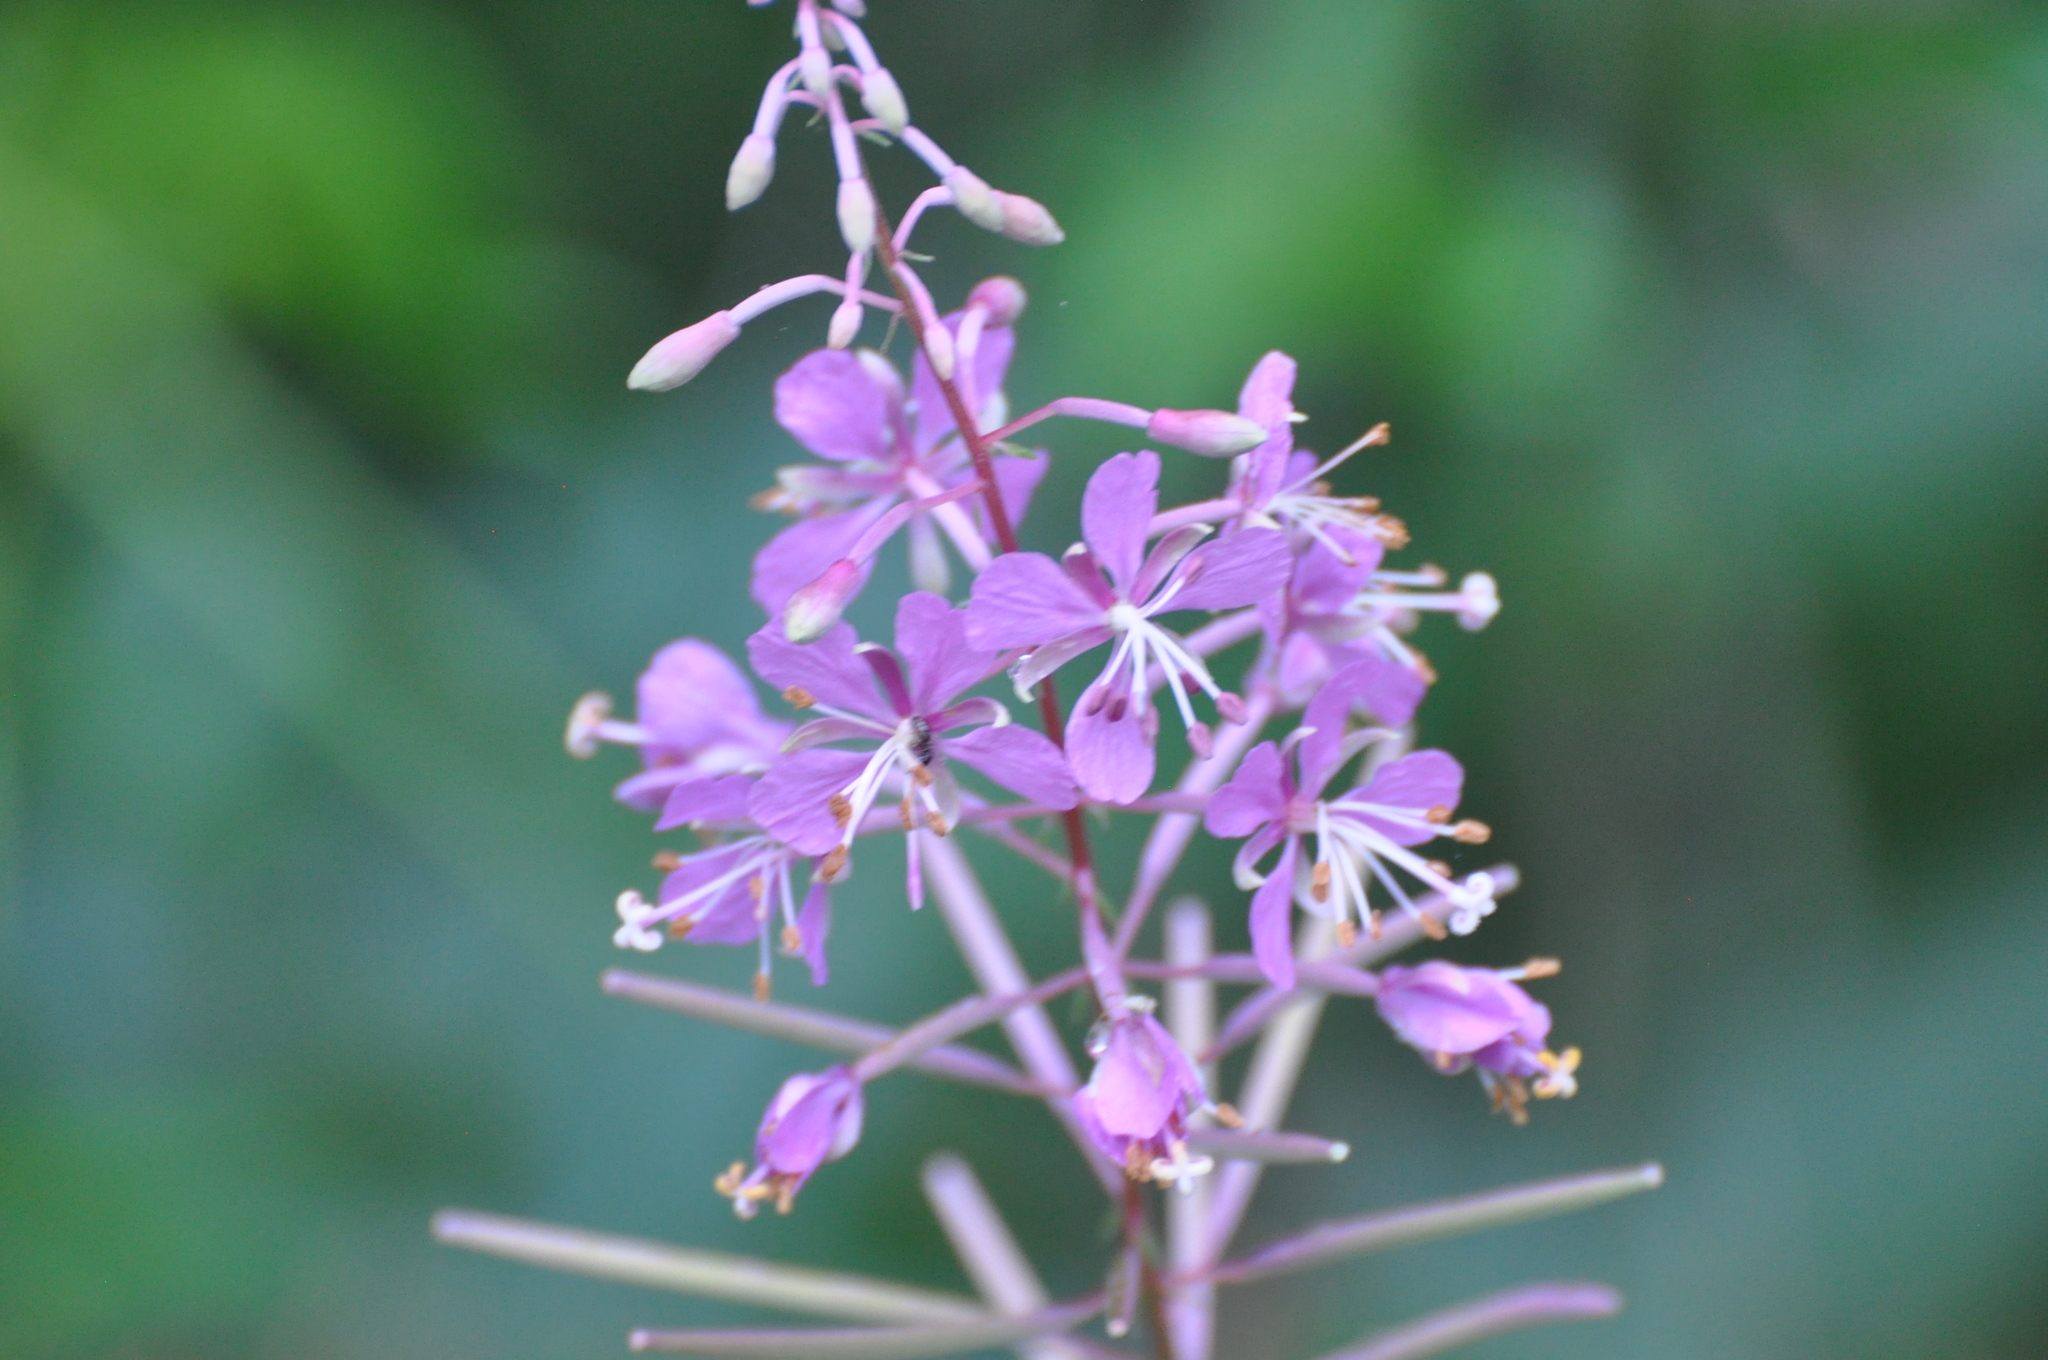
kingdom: Plantae
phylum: Tracheophyta
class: Magnoliopsida
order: Myrtales
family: Onagraceae
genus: Chamaenerion
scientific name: Chamaenerion angustifolium
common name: Fireweed
